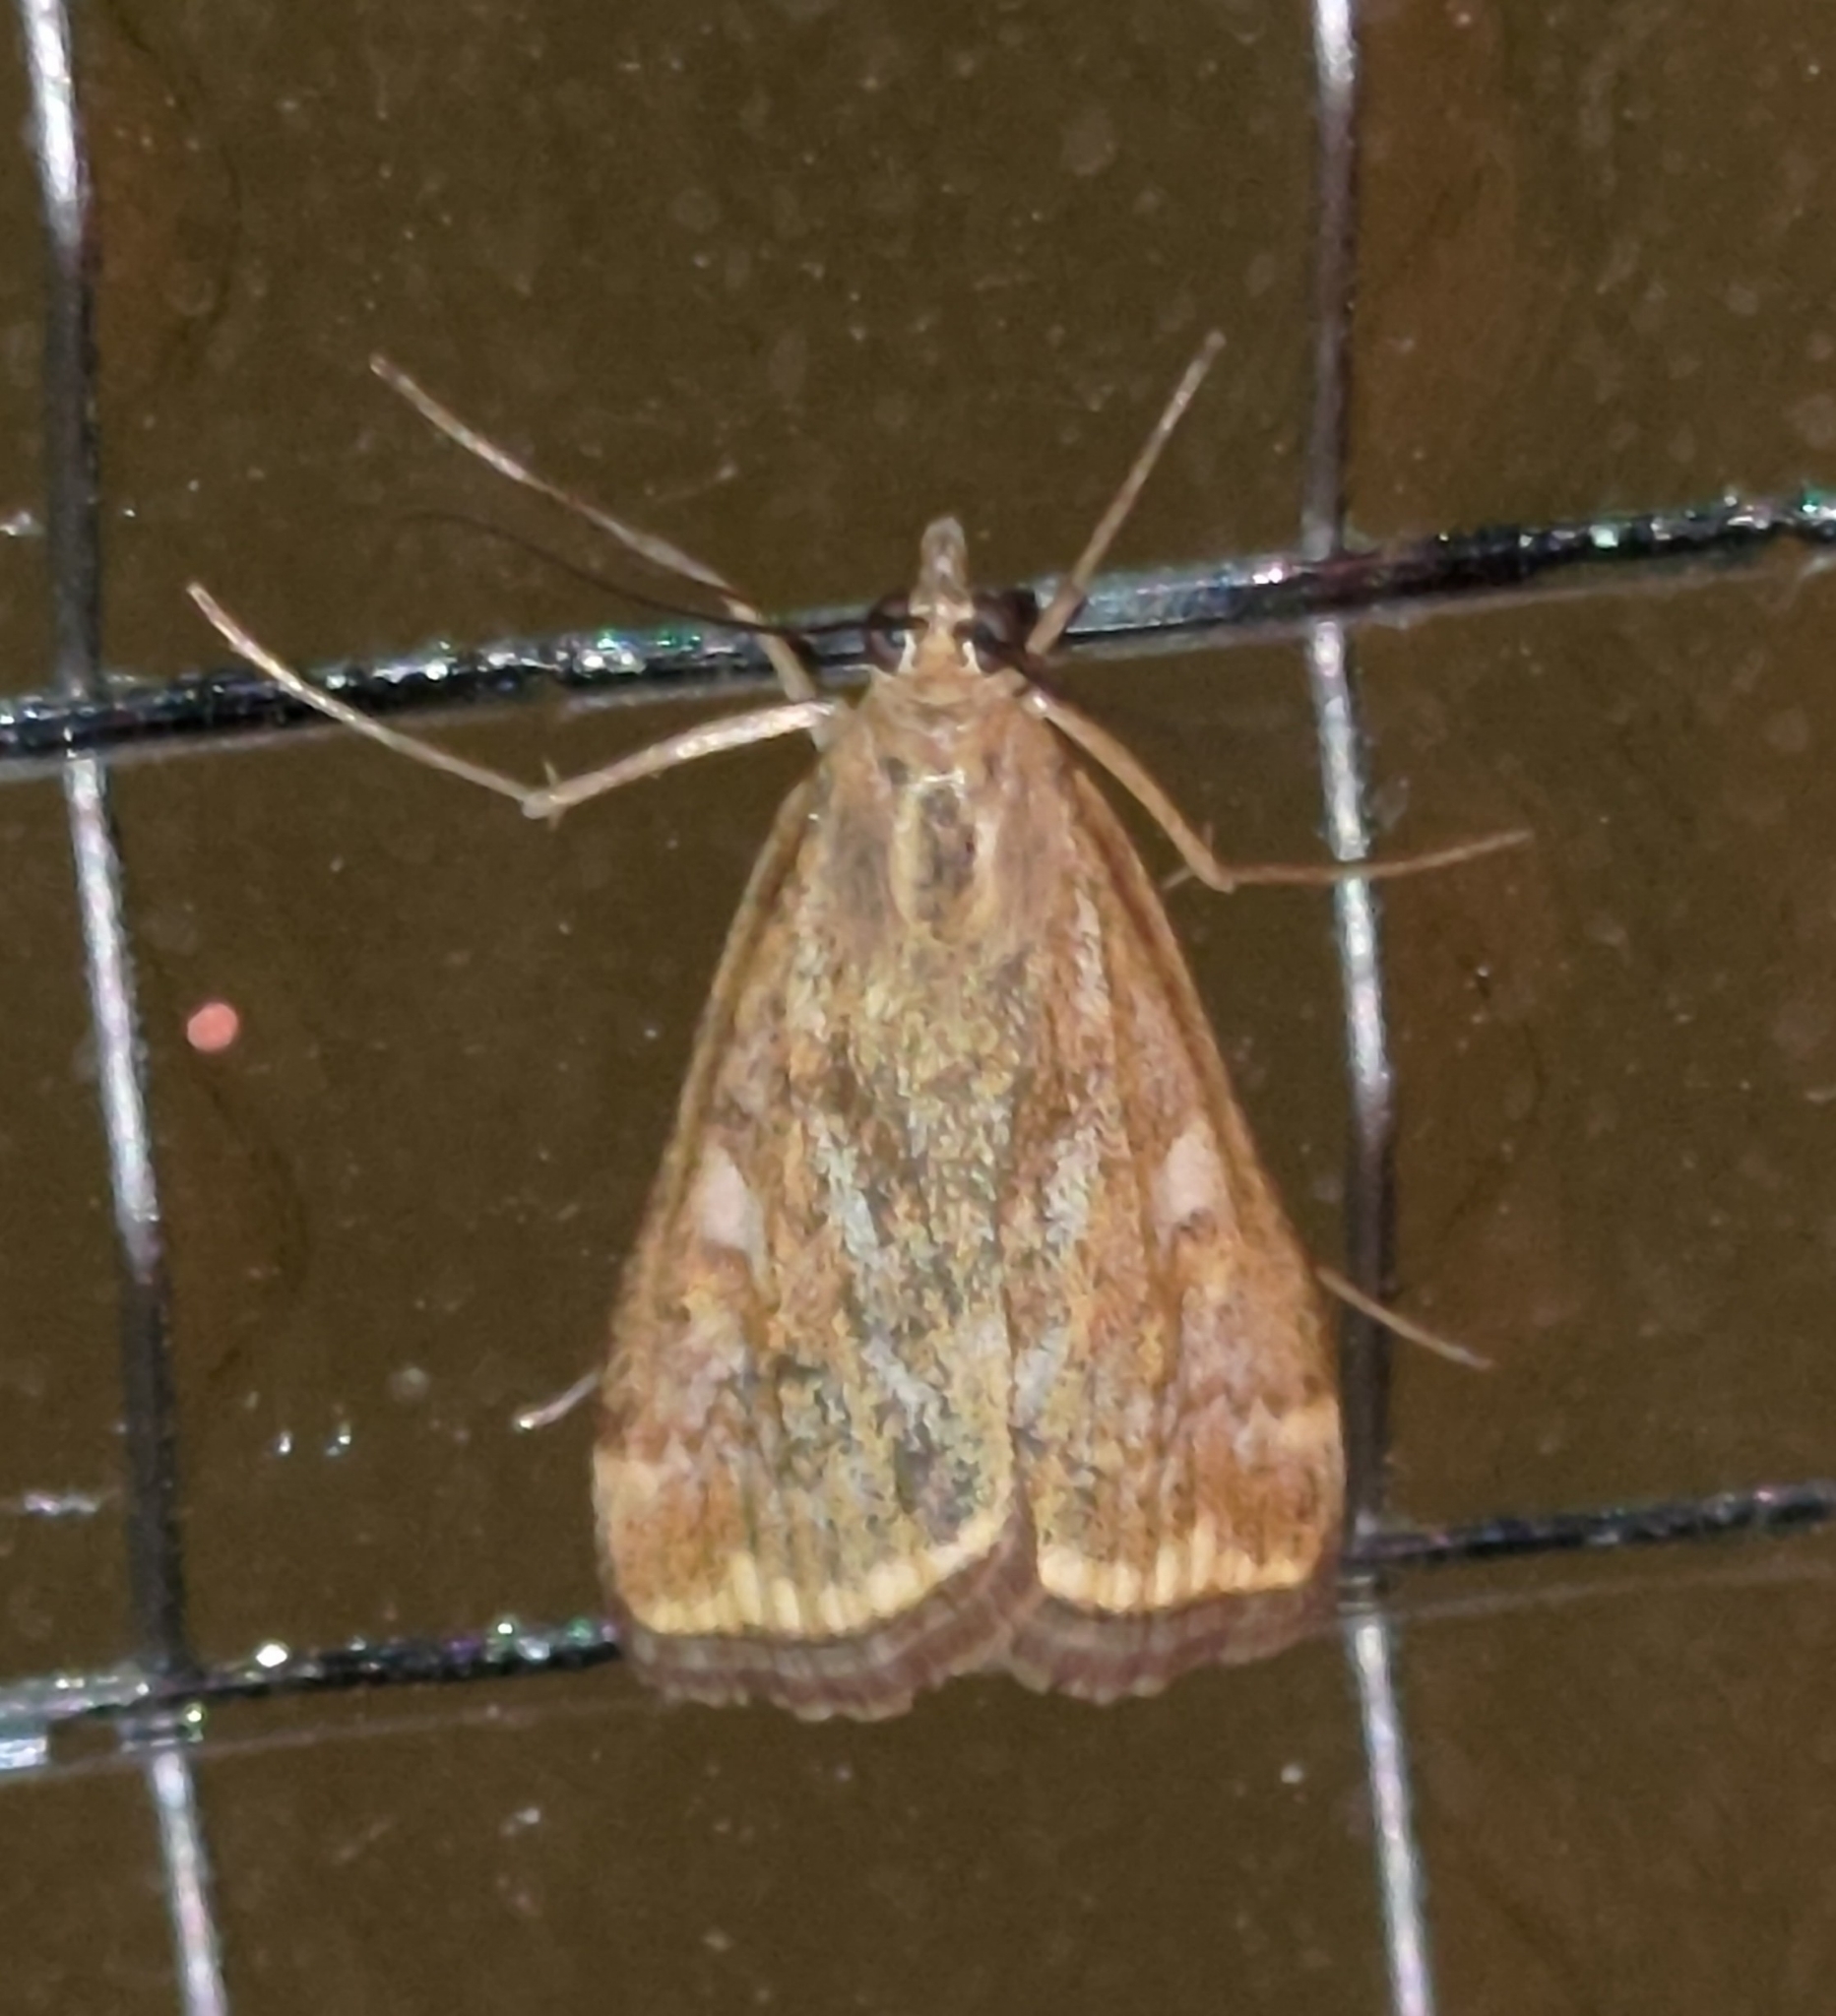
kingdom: Animalia
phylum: Arthropoda
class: Insecta
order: Lepidoptera
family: Crambidae
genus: Loxostege
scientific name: Loxostege sticticalis
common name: Crambid moth
